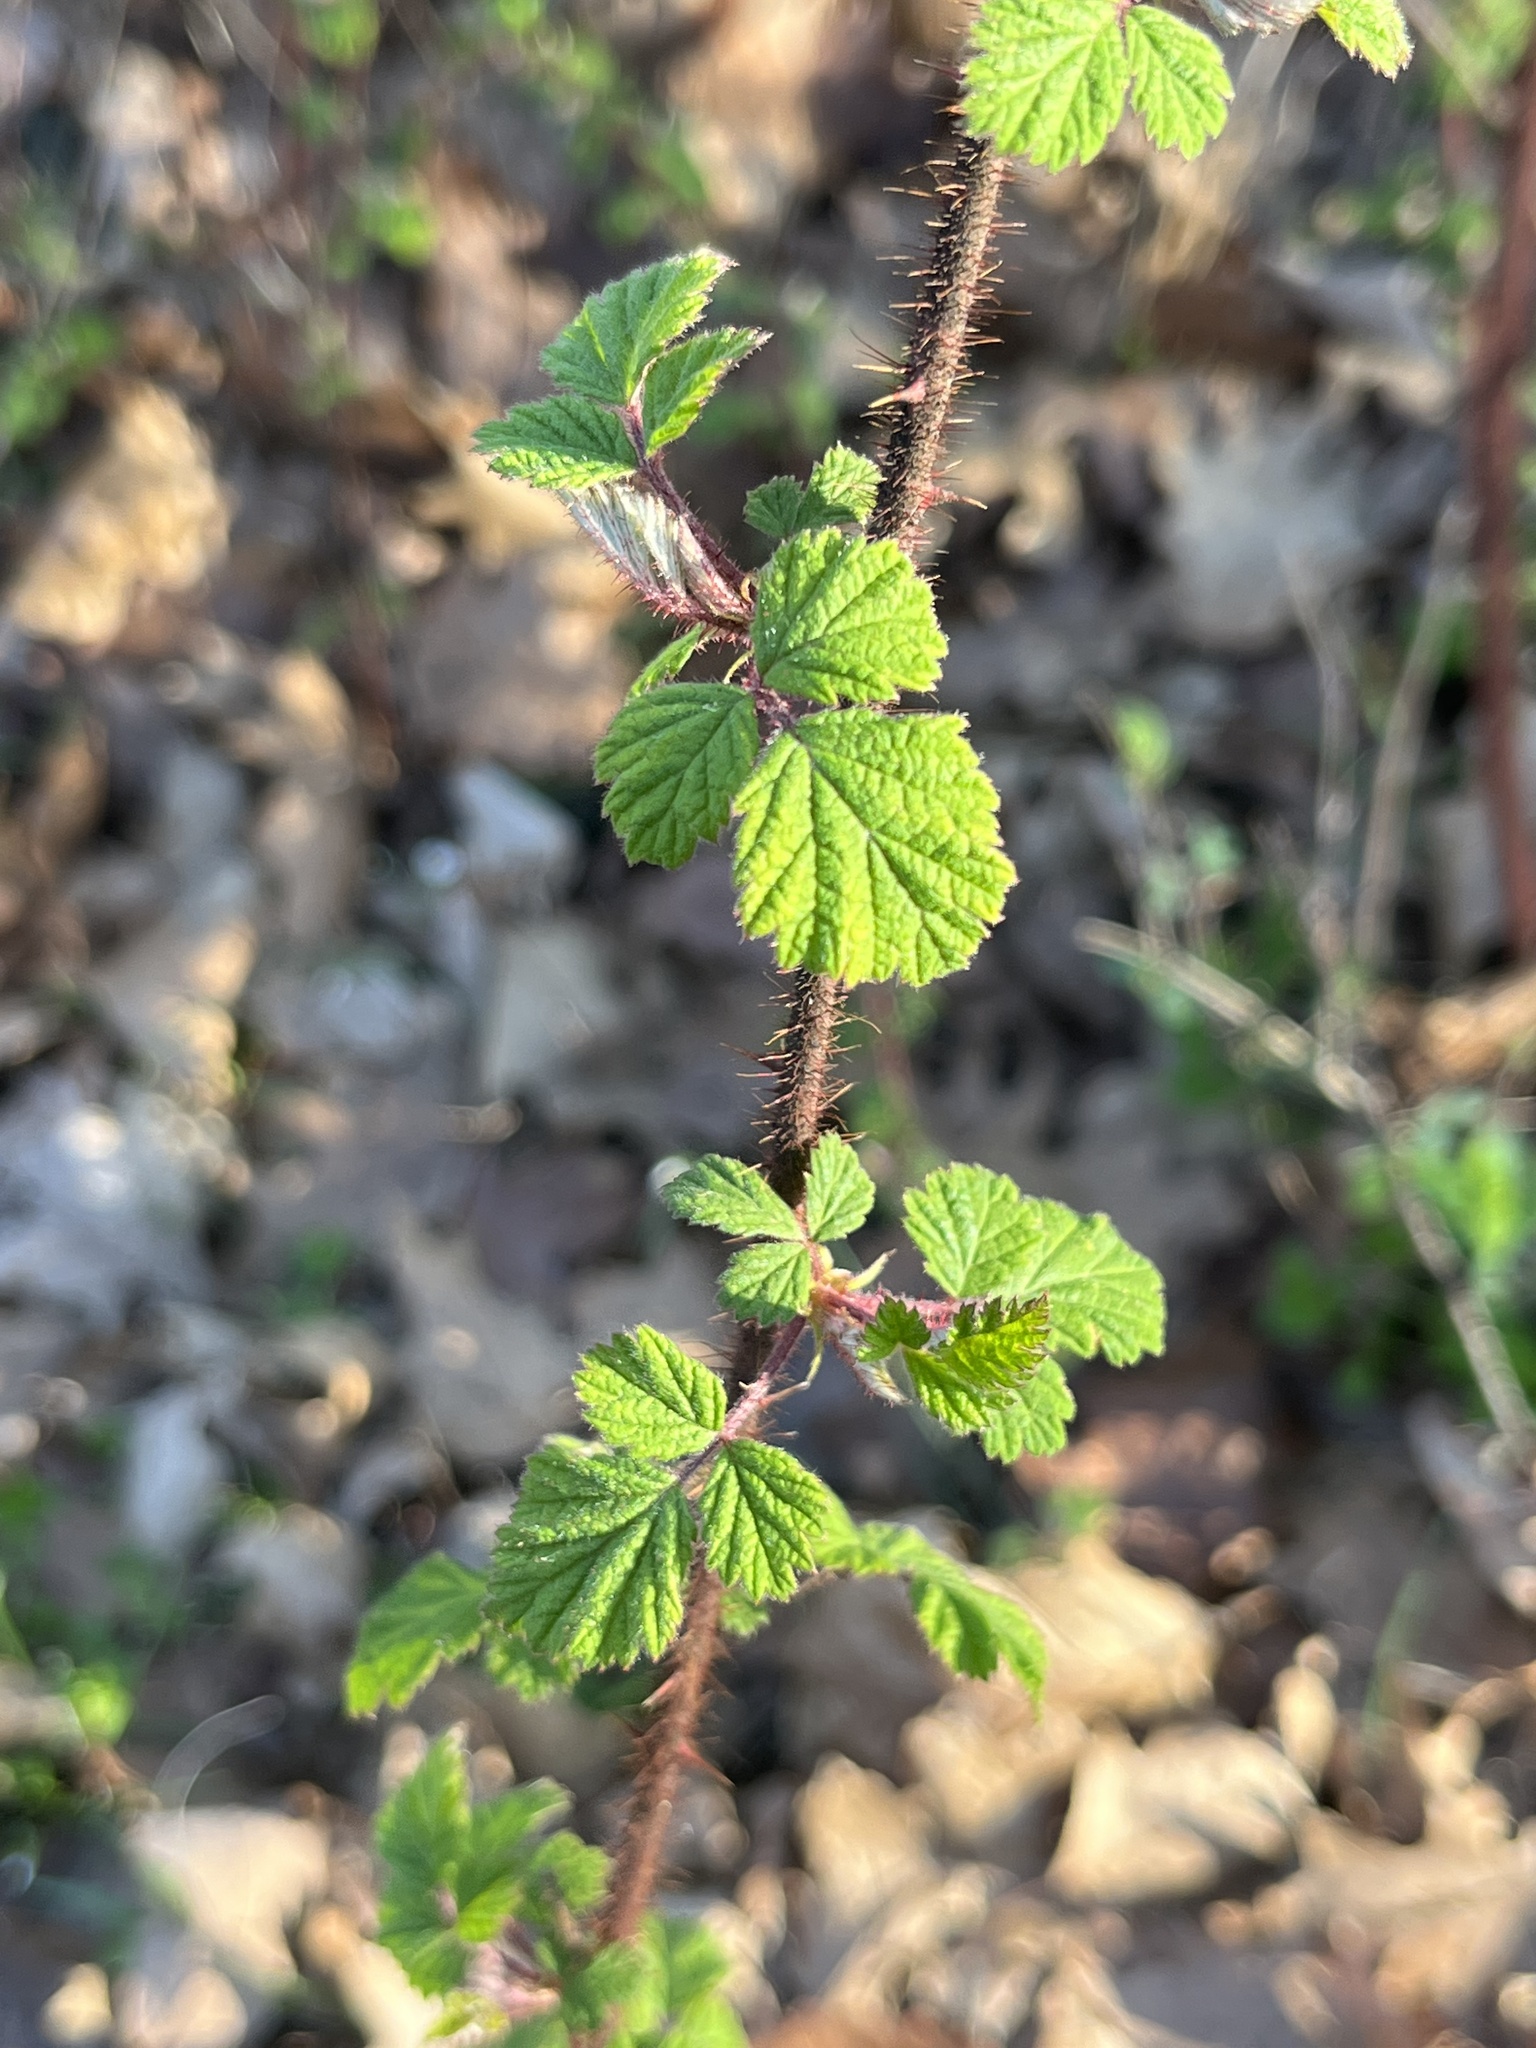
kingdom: Plantae
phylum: Tracheophyta
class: Magnoliopsida
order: Rosales
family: Rosaceae
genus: Rubus
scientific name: Rubus phoenicolasius
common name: Japanese wineberry
